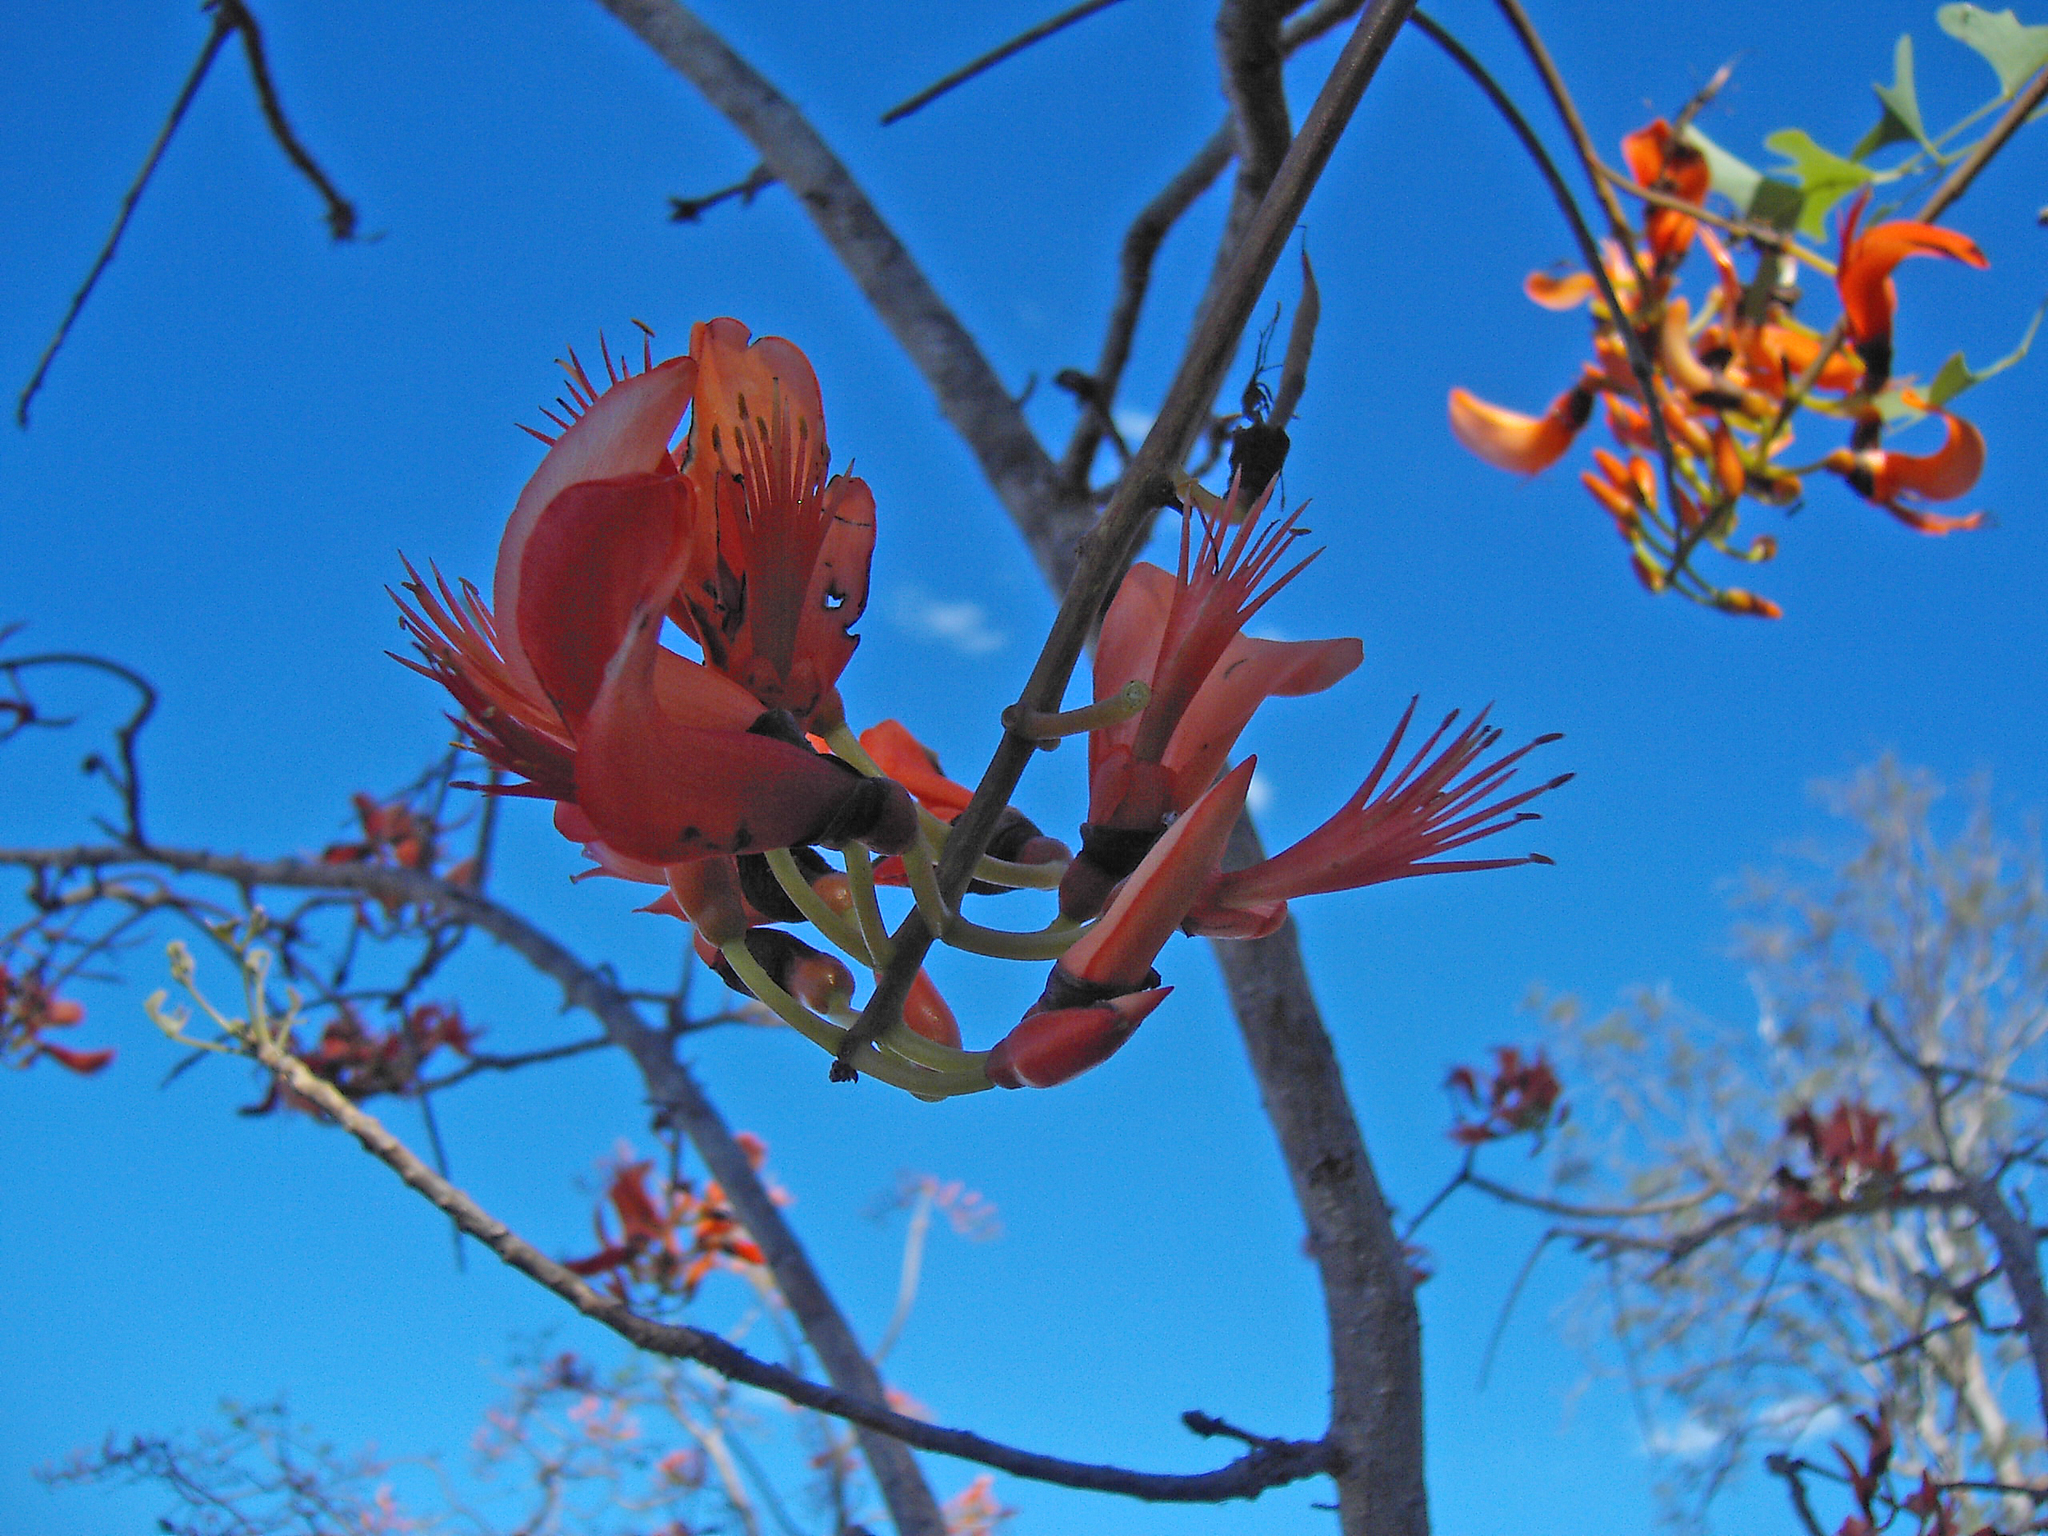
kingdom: Plantae
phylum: Tracheophyta
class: Magnoliopsida
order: Fabales
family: Fabaceae
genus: Erythrina
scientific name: Erythrina vespertilio
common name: Bat-wing coral tree
